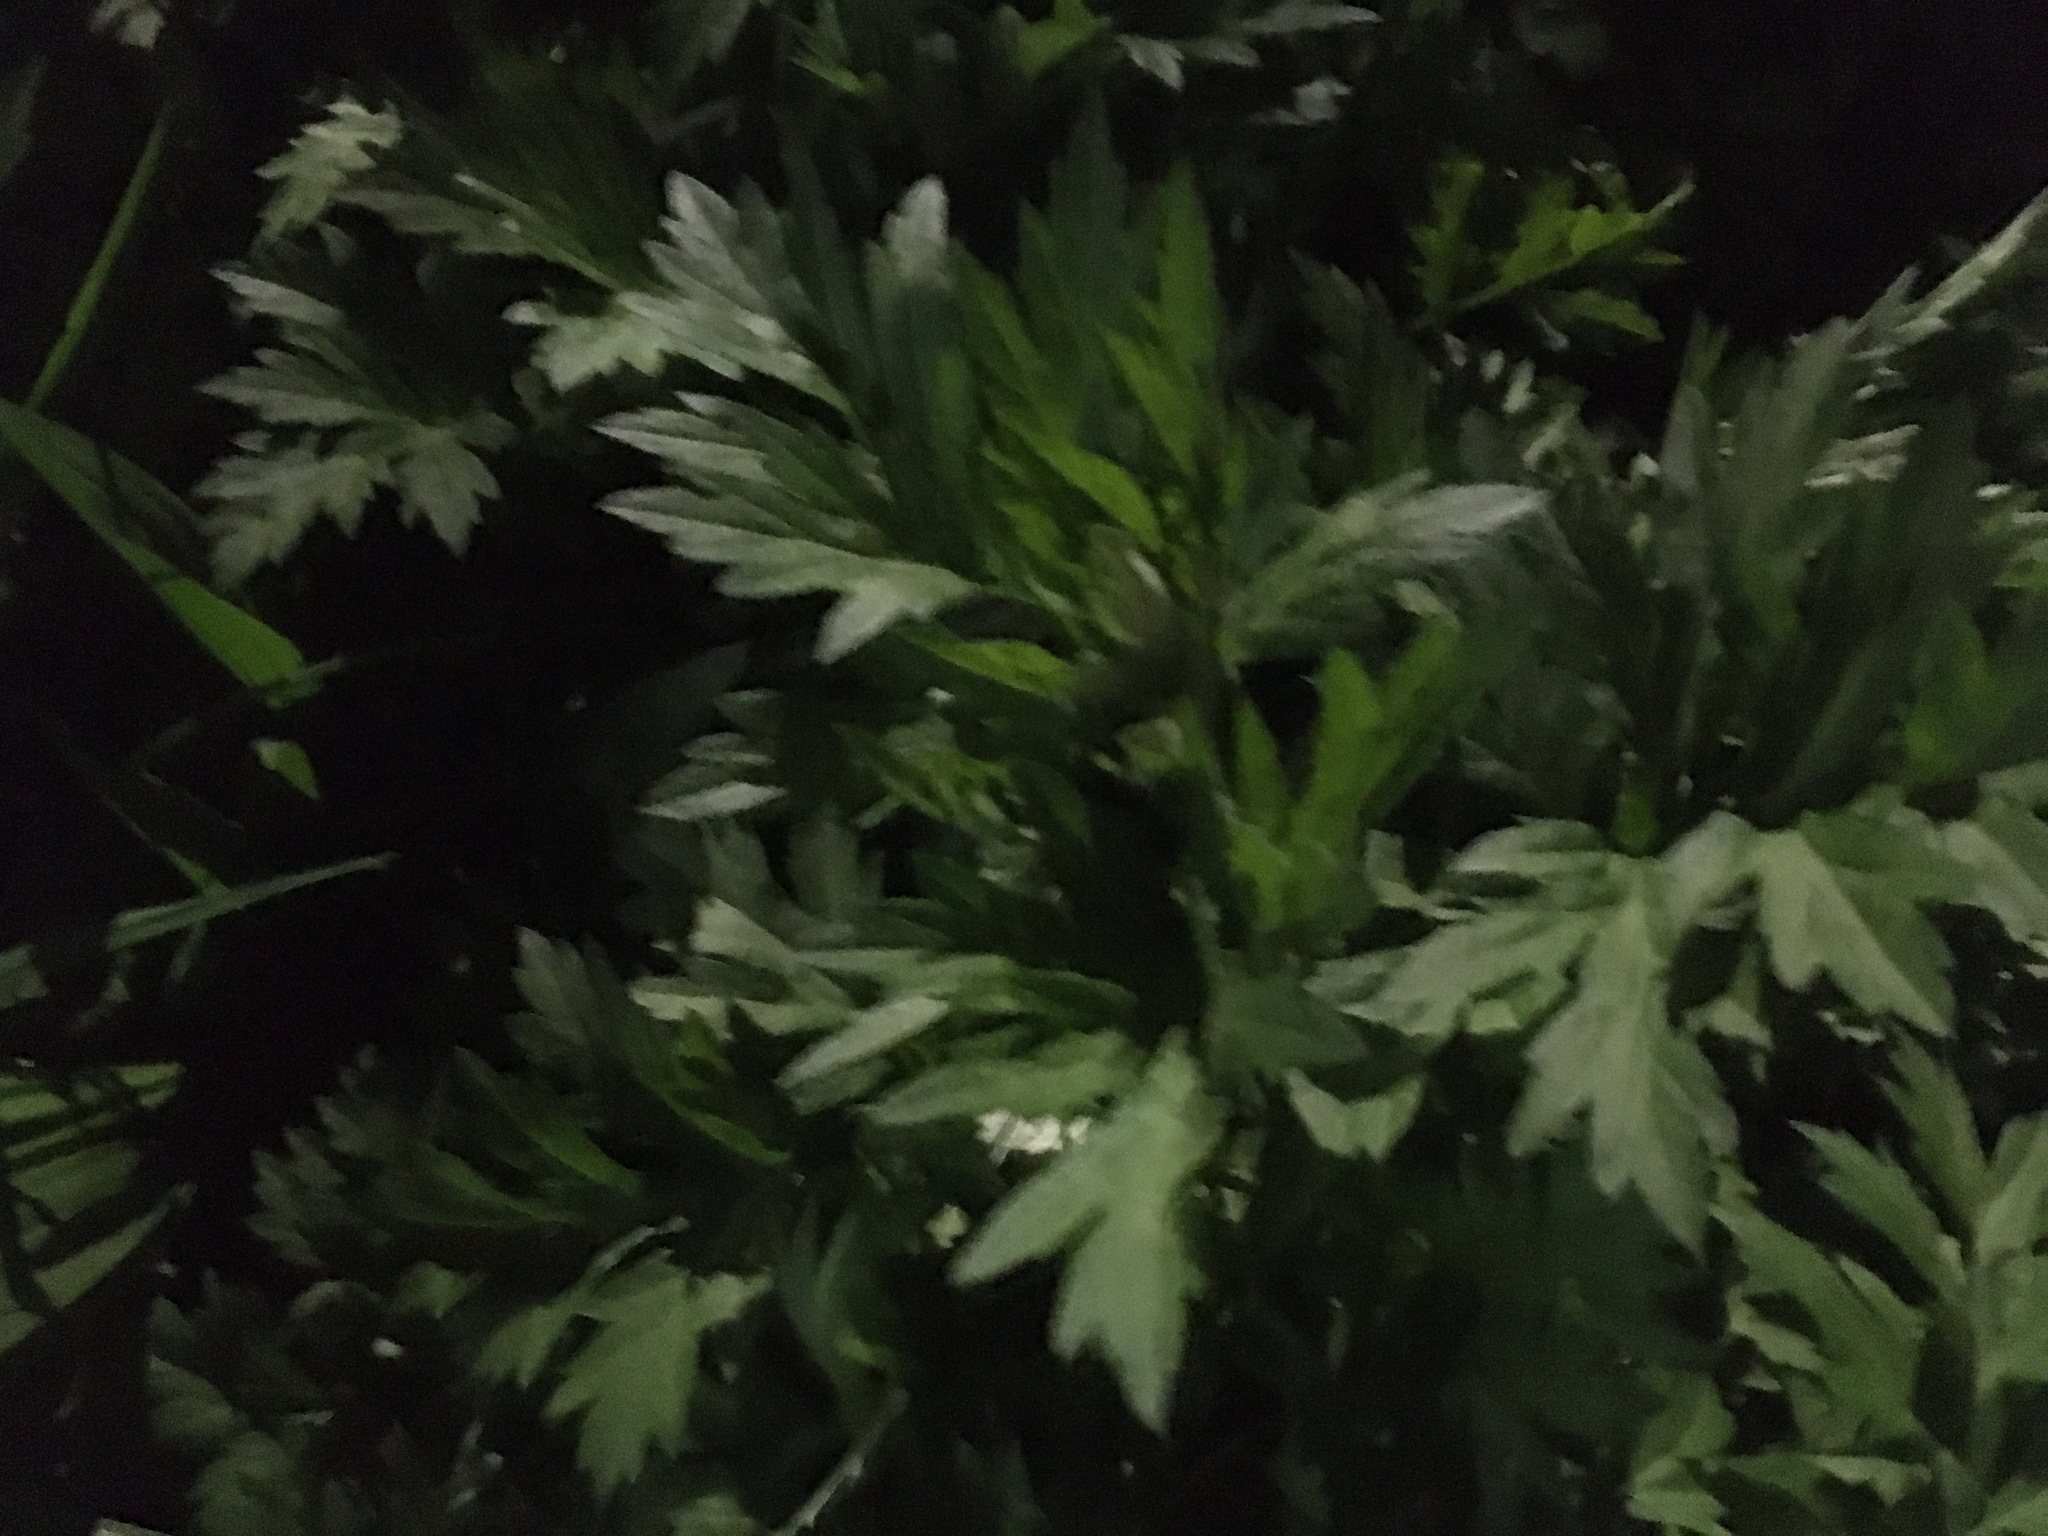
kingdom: Plantae
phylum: Tracheophyta
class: Magnoliopsida
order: Asterales
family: Asteraceae
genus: Artemisia
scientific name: Artemisia vulgaris
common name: Mugwort
